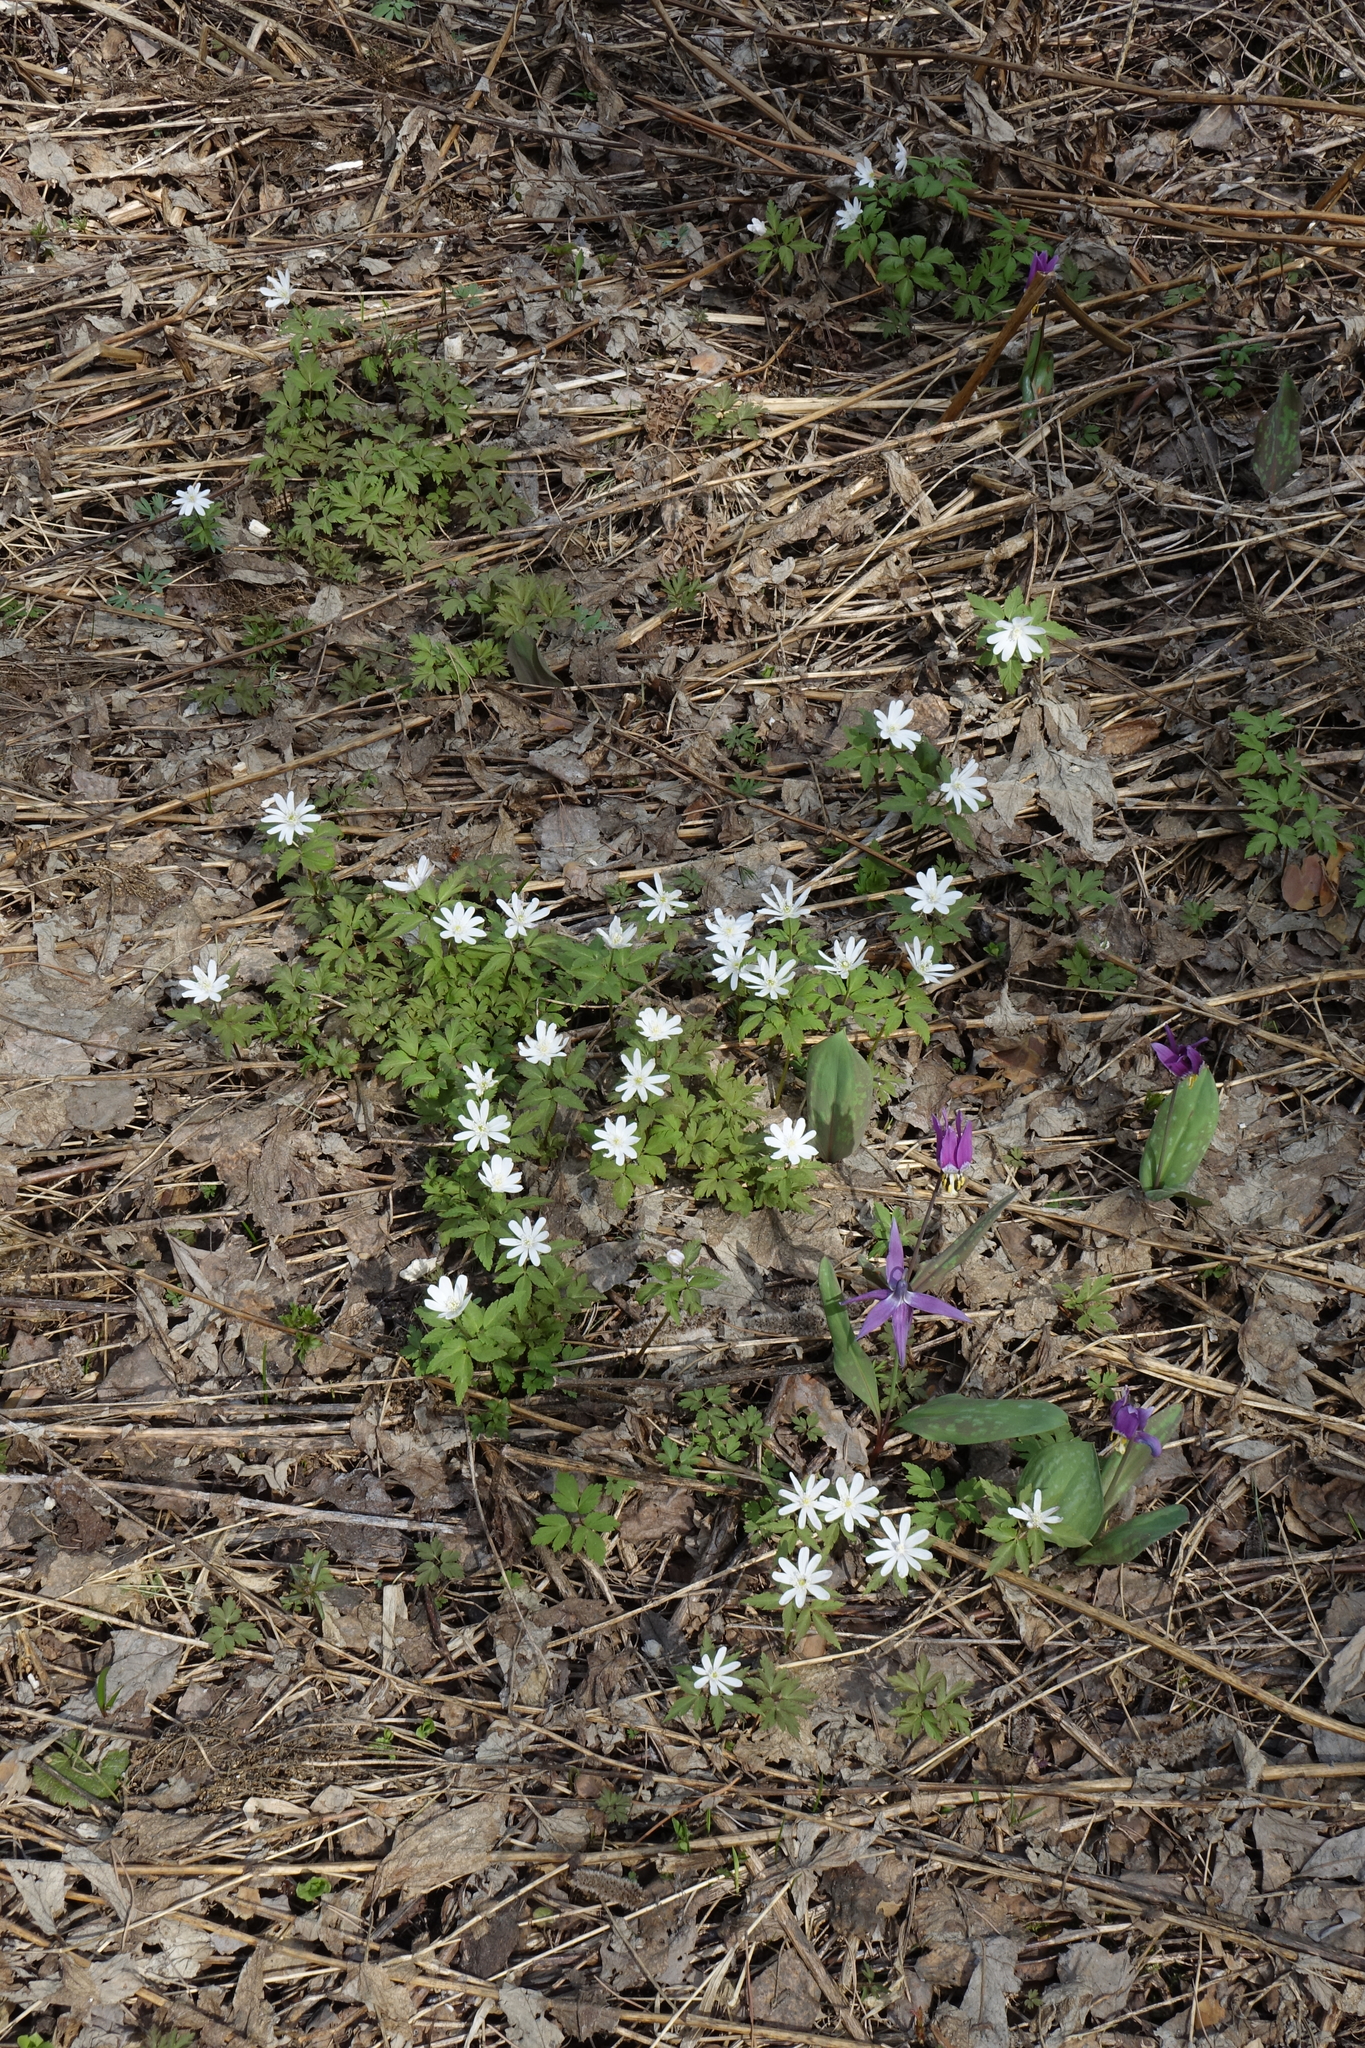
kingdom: Plantae
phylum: Tracheophyta
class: Magnoliopsida
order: Ranunculales
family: Ranunculaceae
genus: Anemone
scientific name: Anemone altaica
